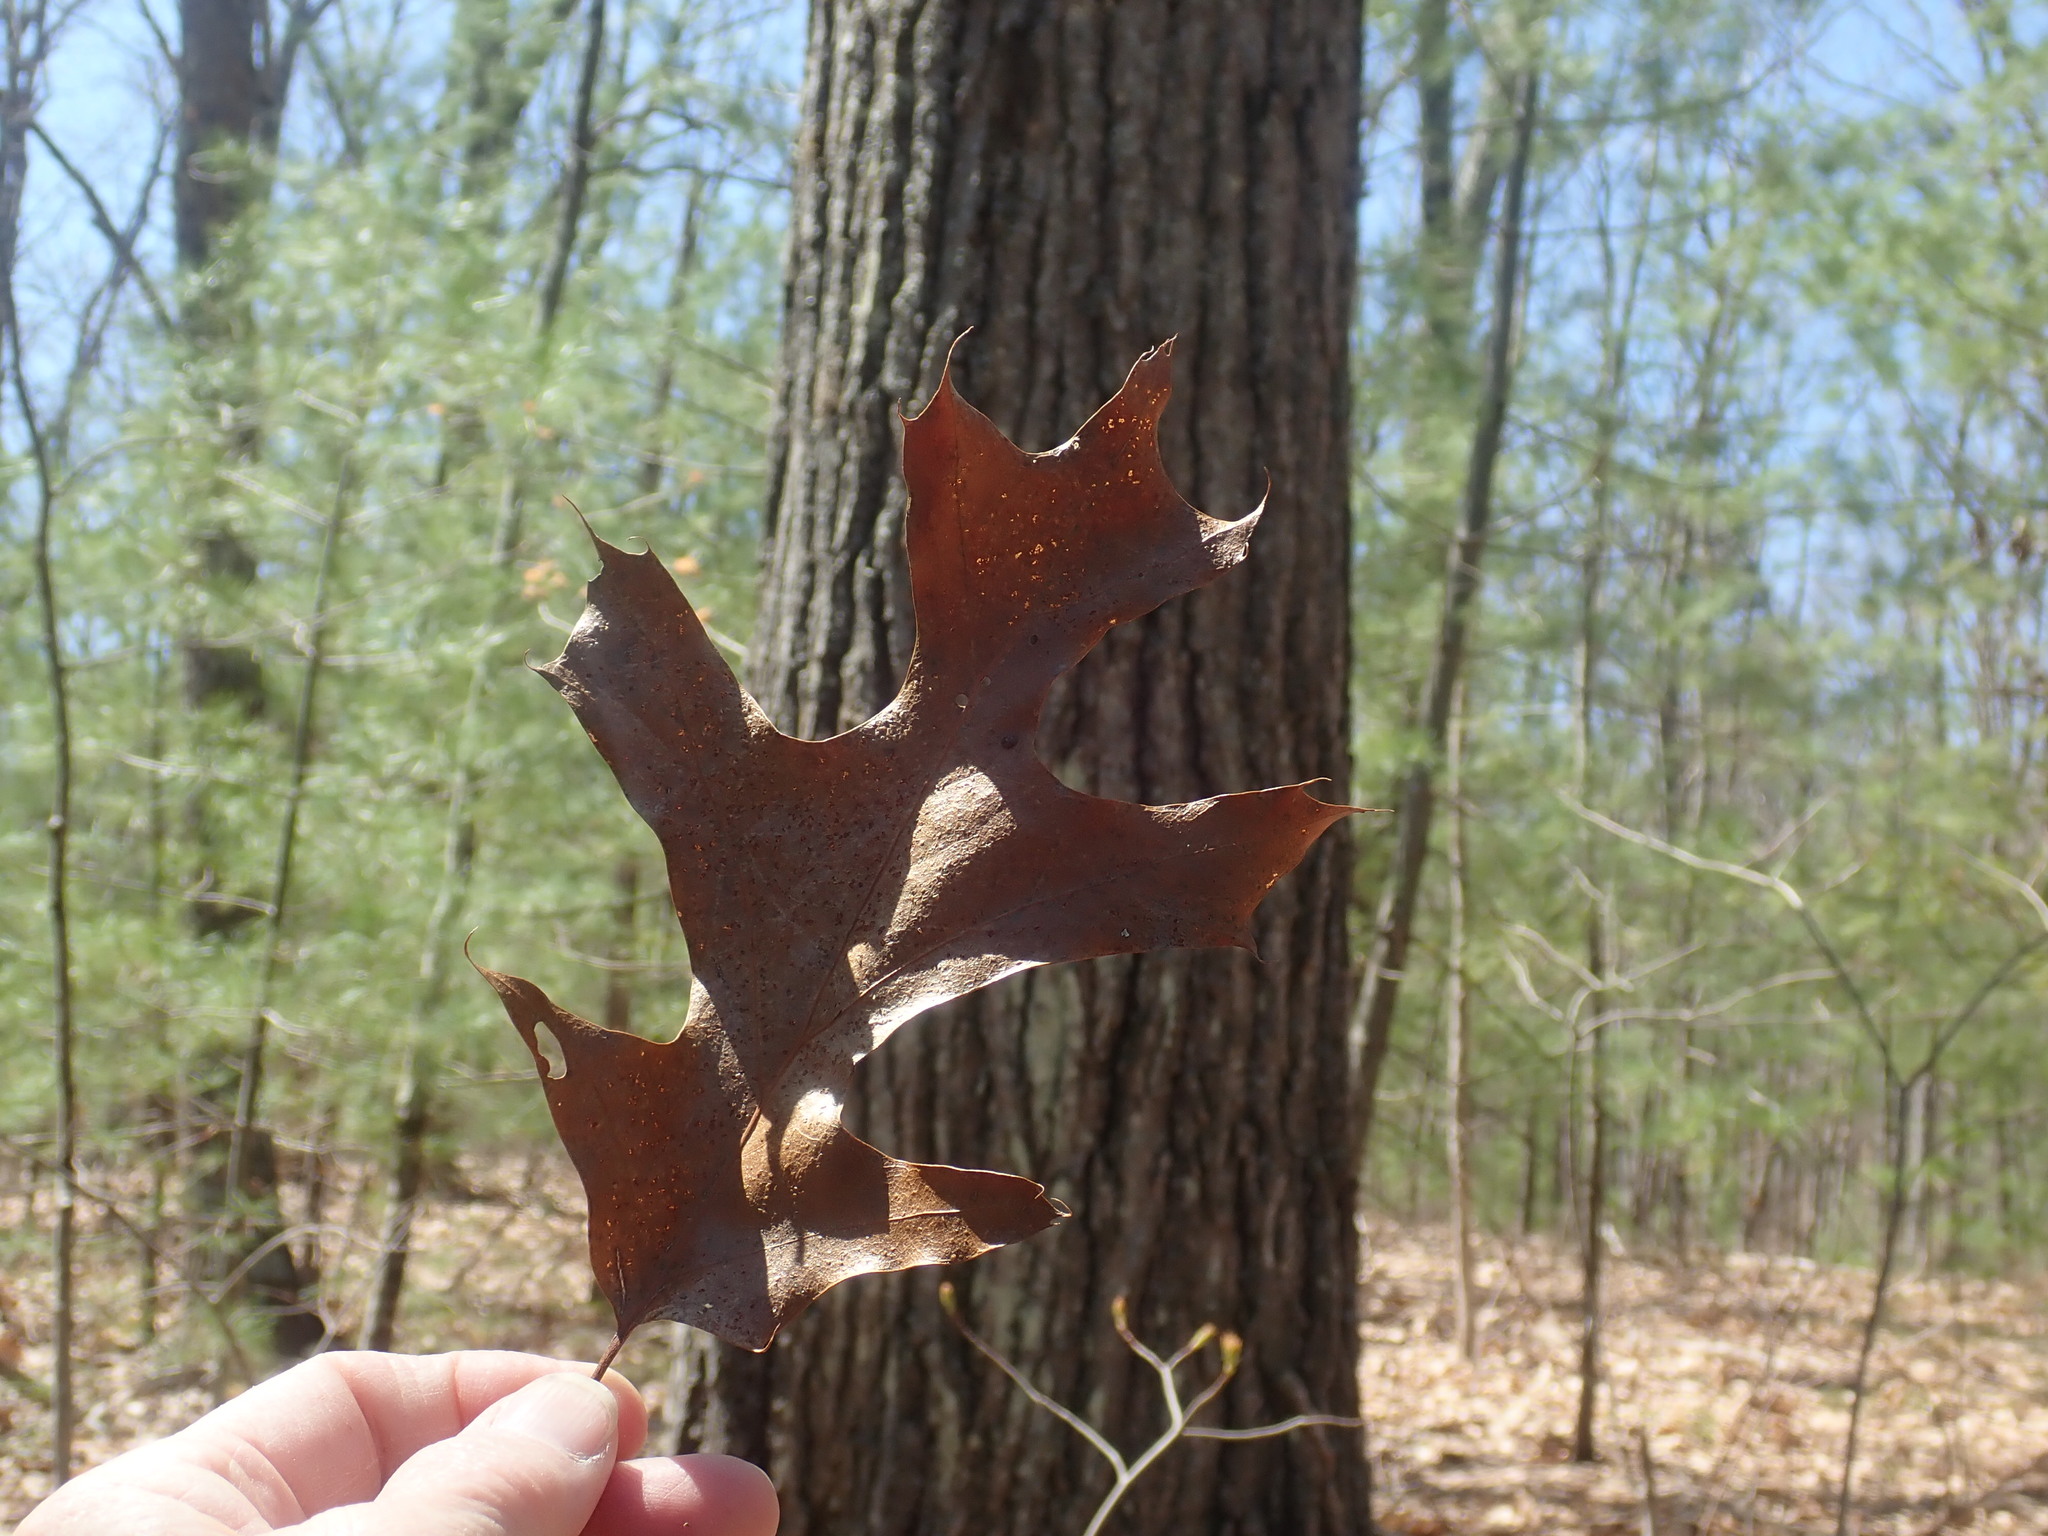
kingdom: Plantae
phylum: Tracheophyta
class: Magnoliopsida
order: Fagales
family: Fagaceae
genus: Quercus
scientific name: Quercus rubra
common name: Red oak
